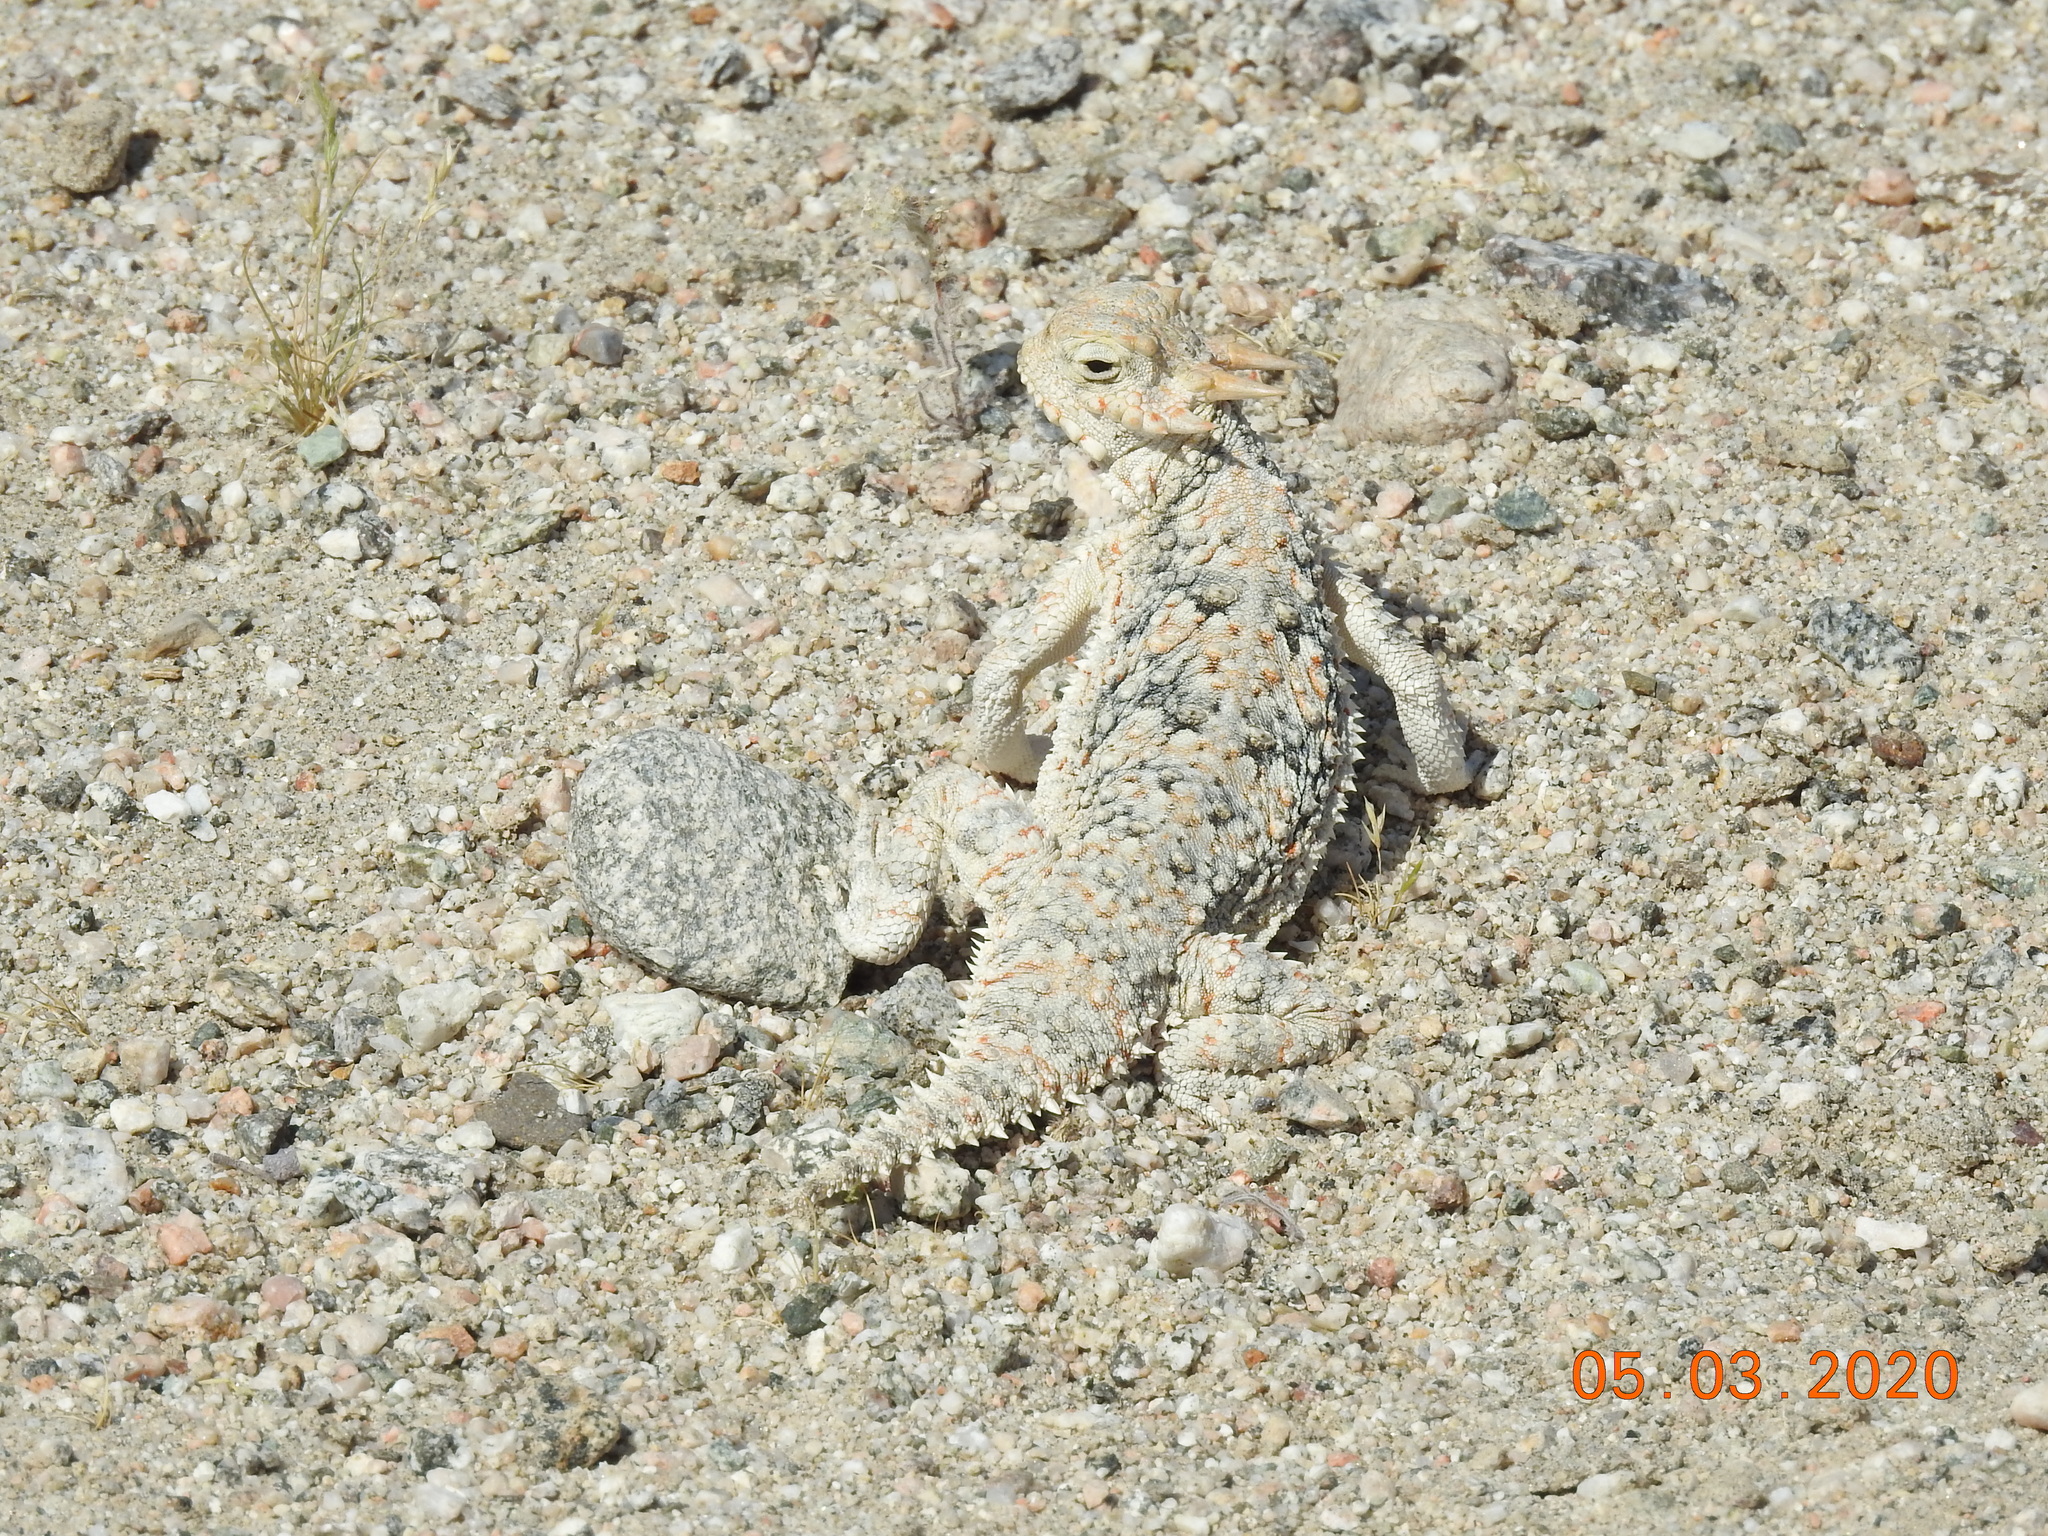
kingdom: Animalia
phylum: Chordata
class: Squamata
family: Phrynosomatidae
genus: Phrynosoma
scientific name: Phrynosoma platyrhinos
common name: Desert horned lizard
